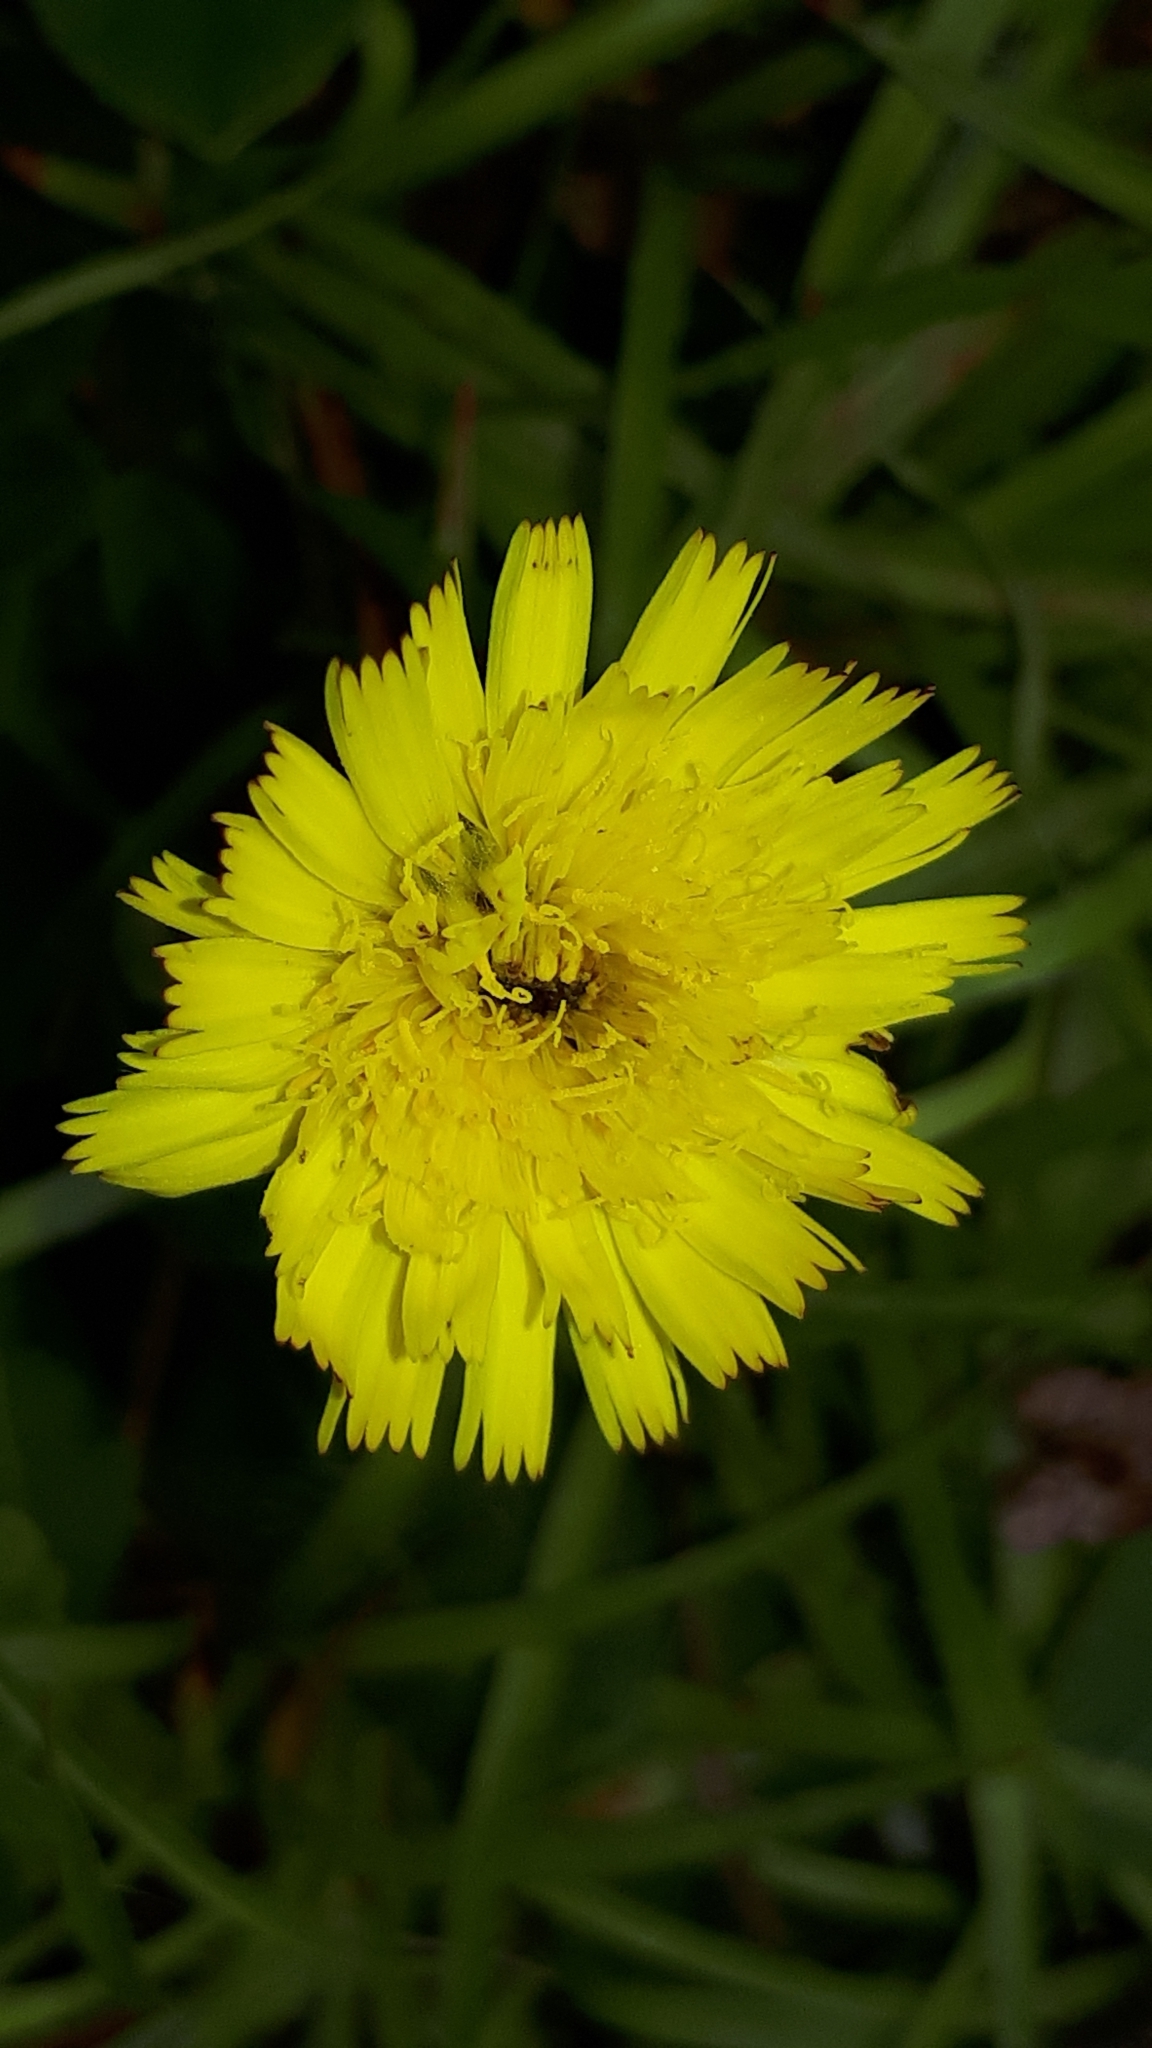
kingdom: Plantae
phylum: Tracheophyta
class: Magnoliopsida
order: Asterales
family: Asteraceae
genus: Pilosella
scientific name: Pilosella officinarum
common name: Mouse-ear hawkweed
